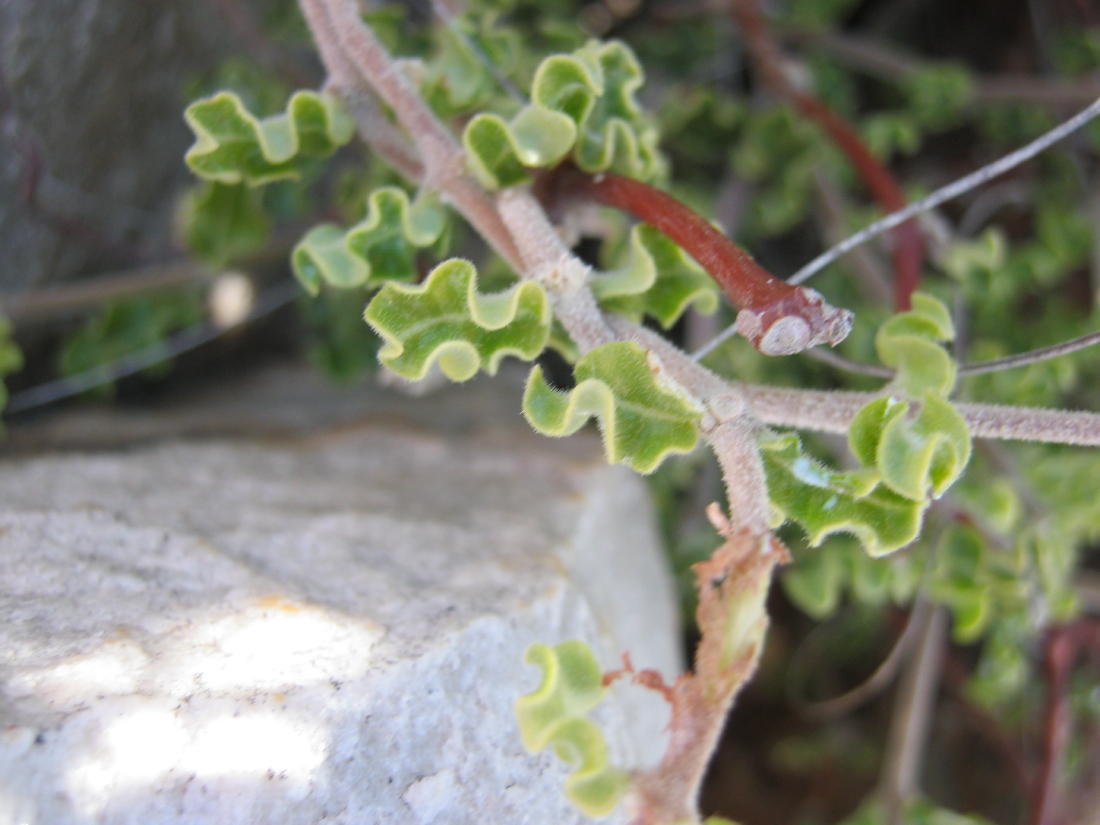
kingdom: Plantae
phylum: Tracheophyta
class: Magnoliopsida
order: Gentianales
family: Apocynaceae
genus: Fockea
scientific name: Fockea capensis
